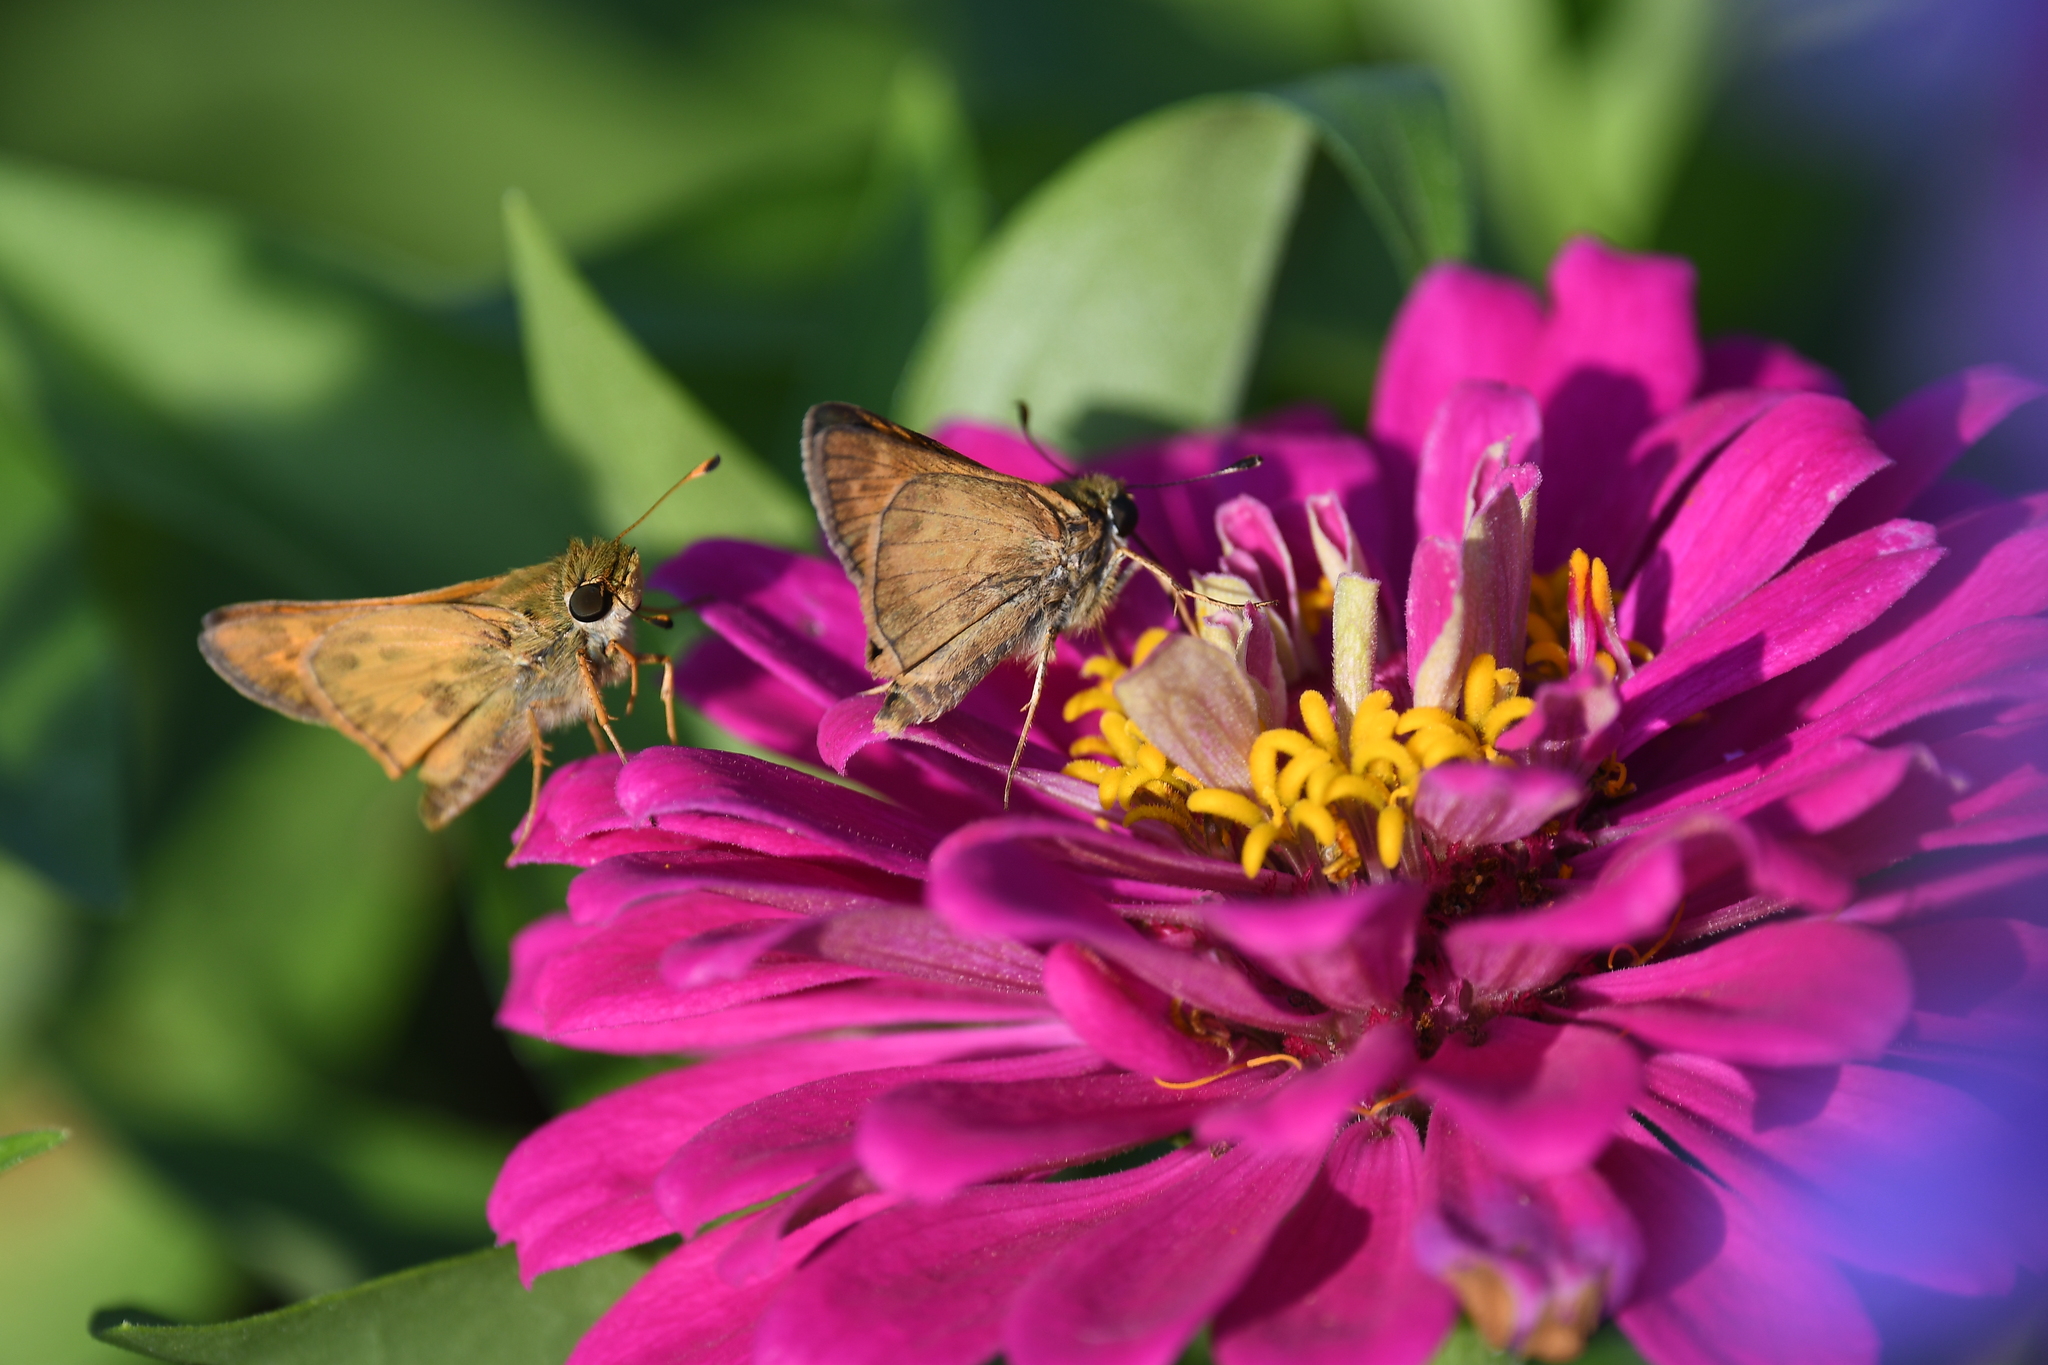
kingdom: Animalia
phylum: Arthropoda
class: Insecta
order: Lepidoptera
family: Hesperiidae
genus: Atalopedes
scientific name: Atalopedes
